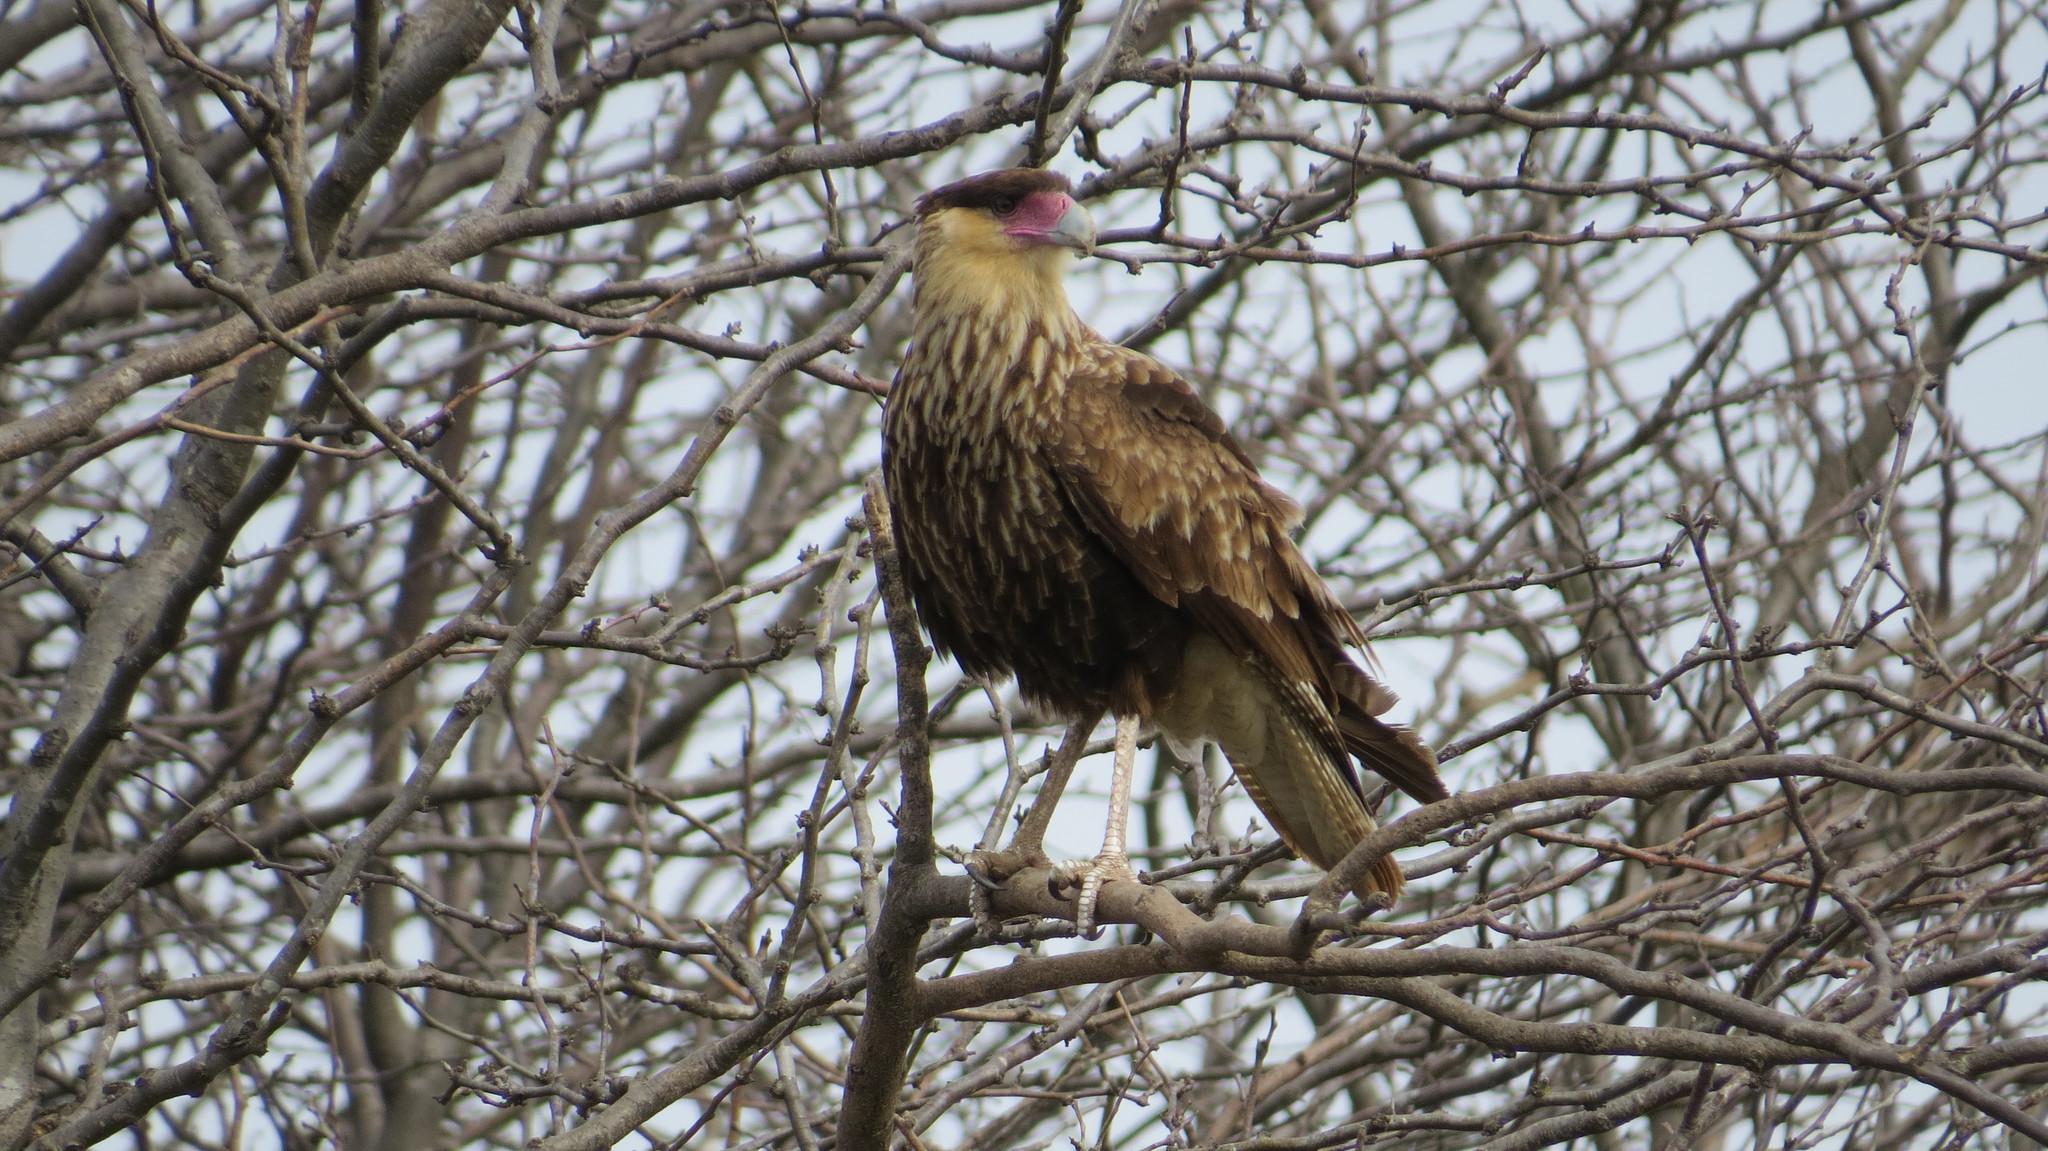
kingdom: Animalia
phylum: Chordata
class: Aves
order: Falconiformes
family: Falconidae
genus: Caracara
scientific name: Caracara plancus
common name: Southern caracara
